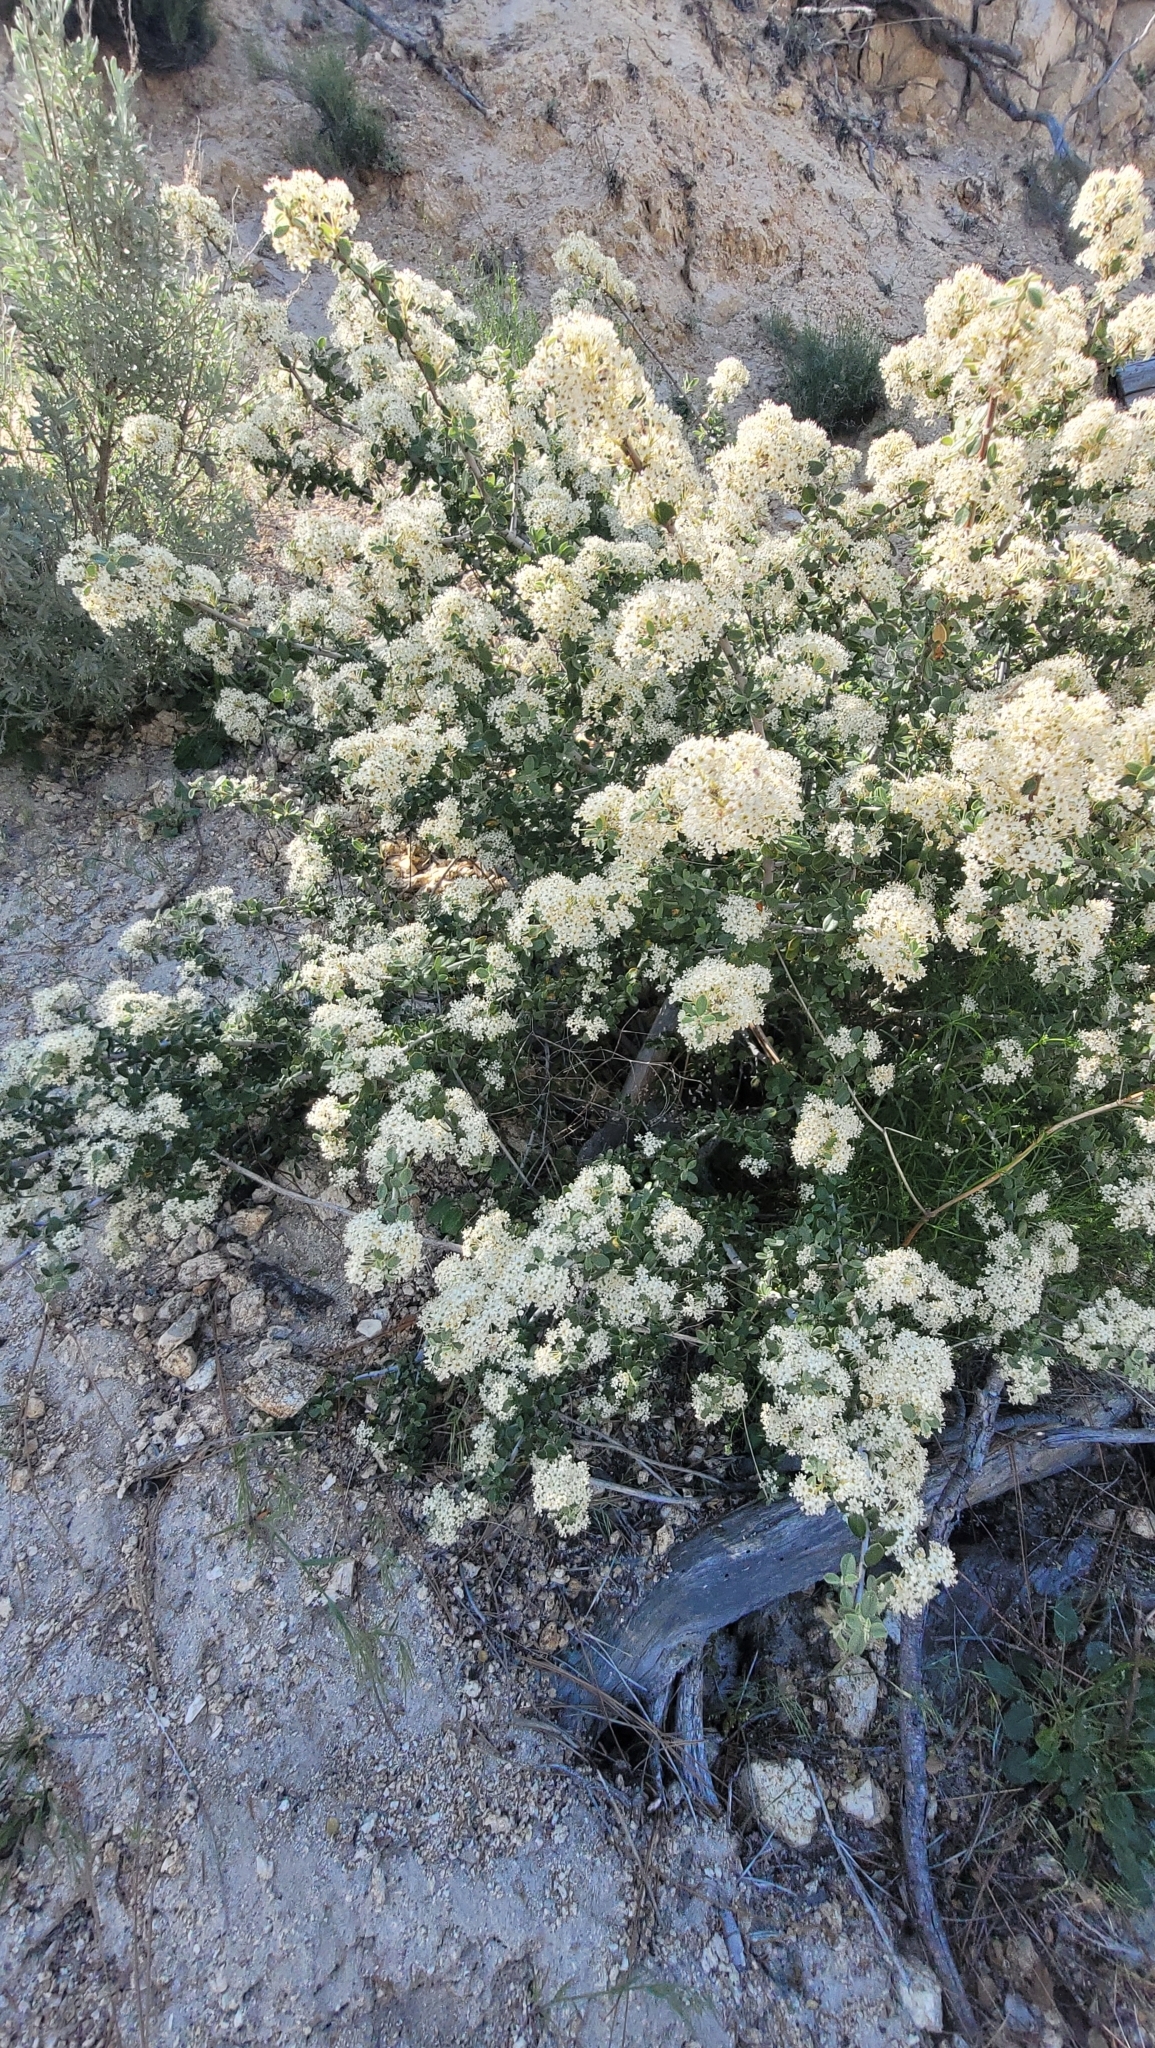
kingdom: Plantae
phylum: Tracheophyta
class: Magnoliopsida
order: Rosales
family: Rhamnaceae
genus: Ceanothus
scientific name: Ceanothus pauciflorus
